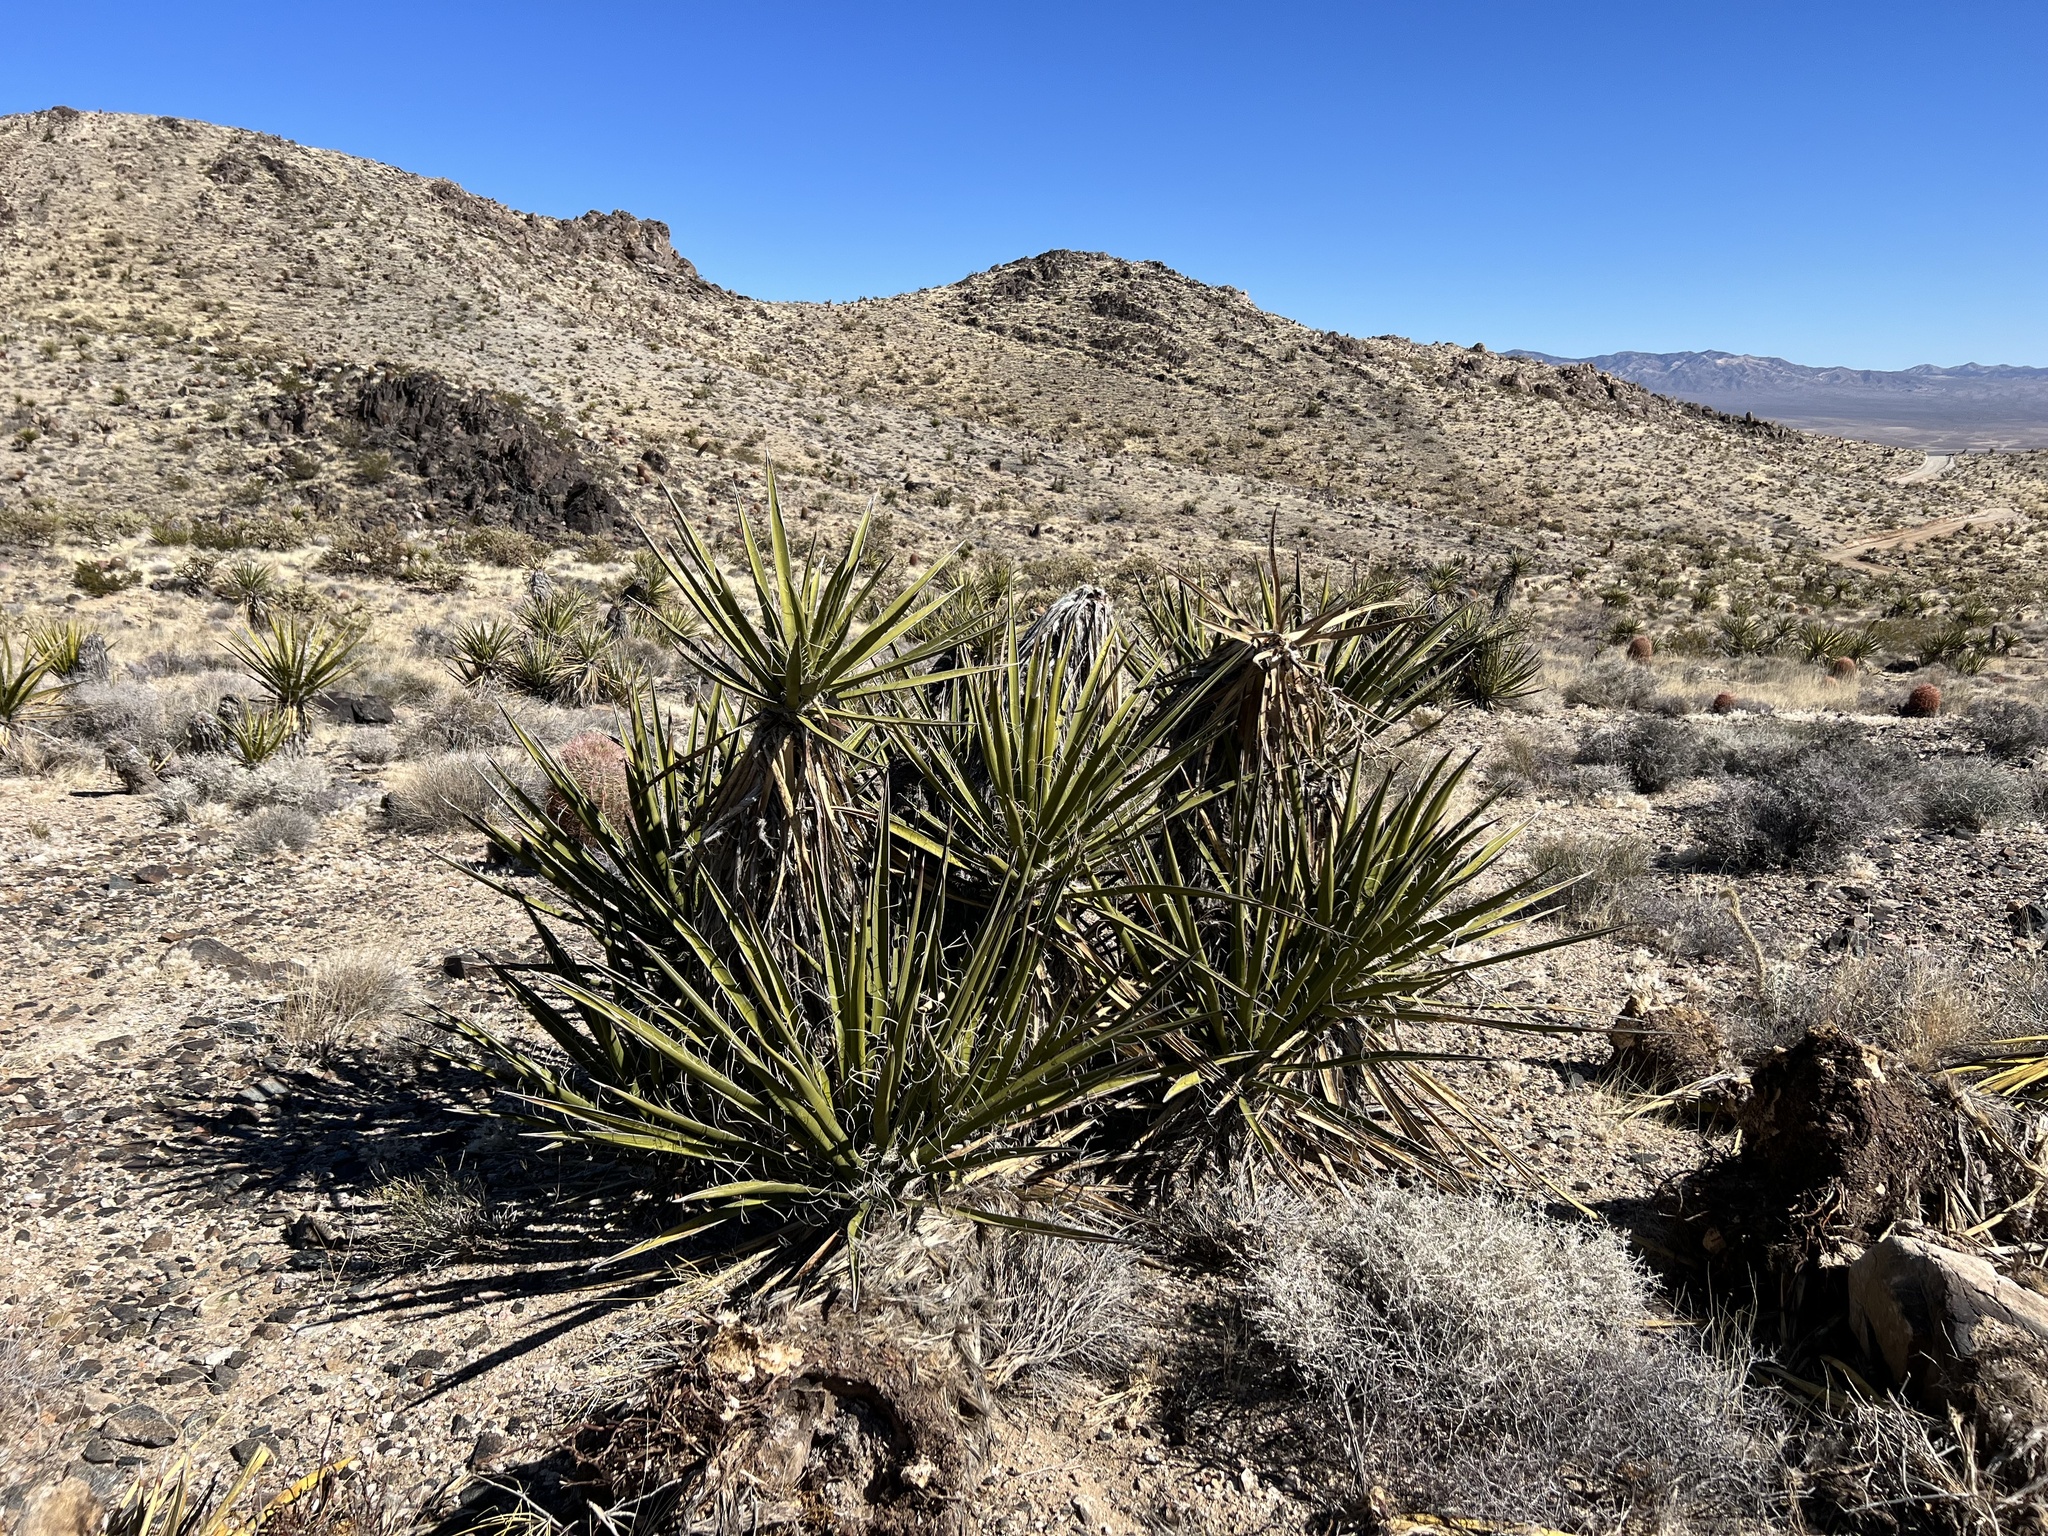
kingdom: Plantae
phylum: Tracheophyta
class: Liliopsida
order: Asparagales
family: Asparagaceae
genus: Yucca
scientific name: Yucca schidigera
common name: Mojave yucca
